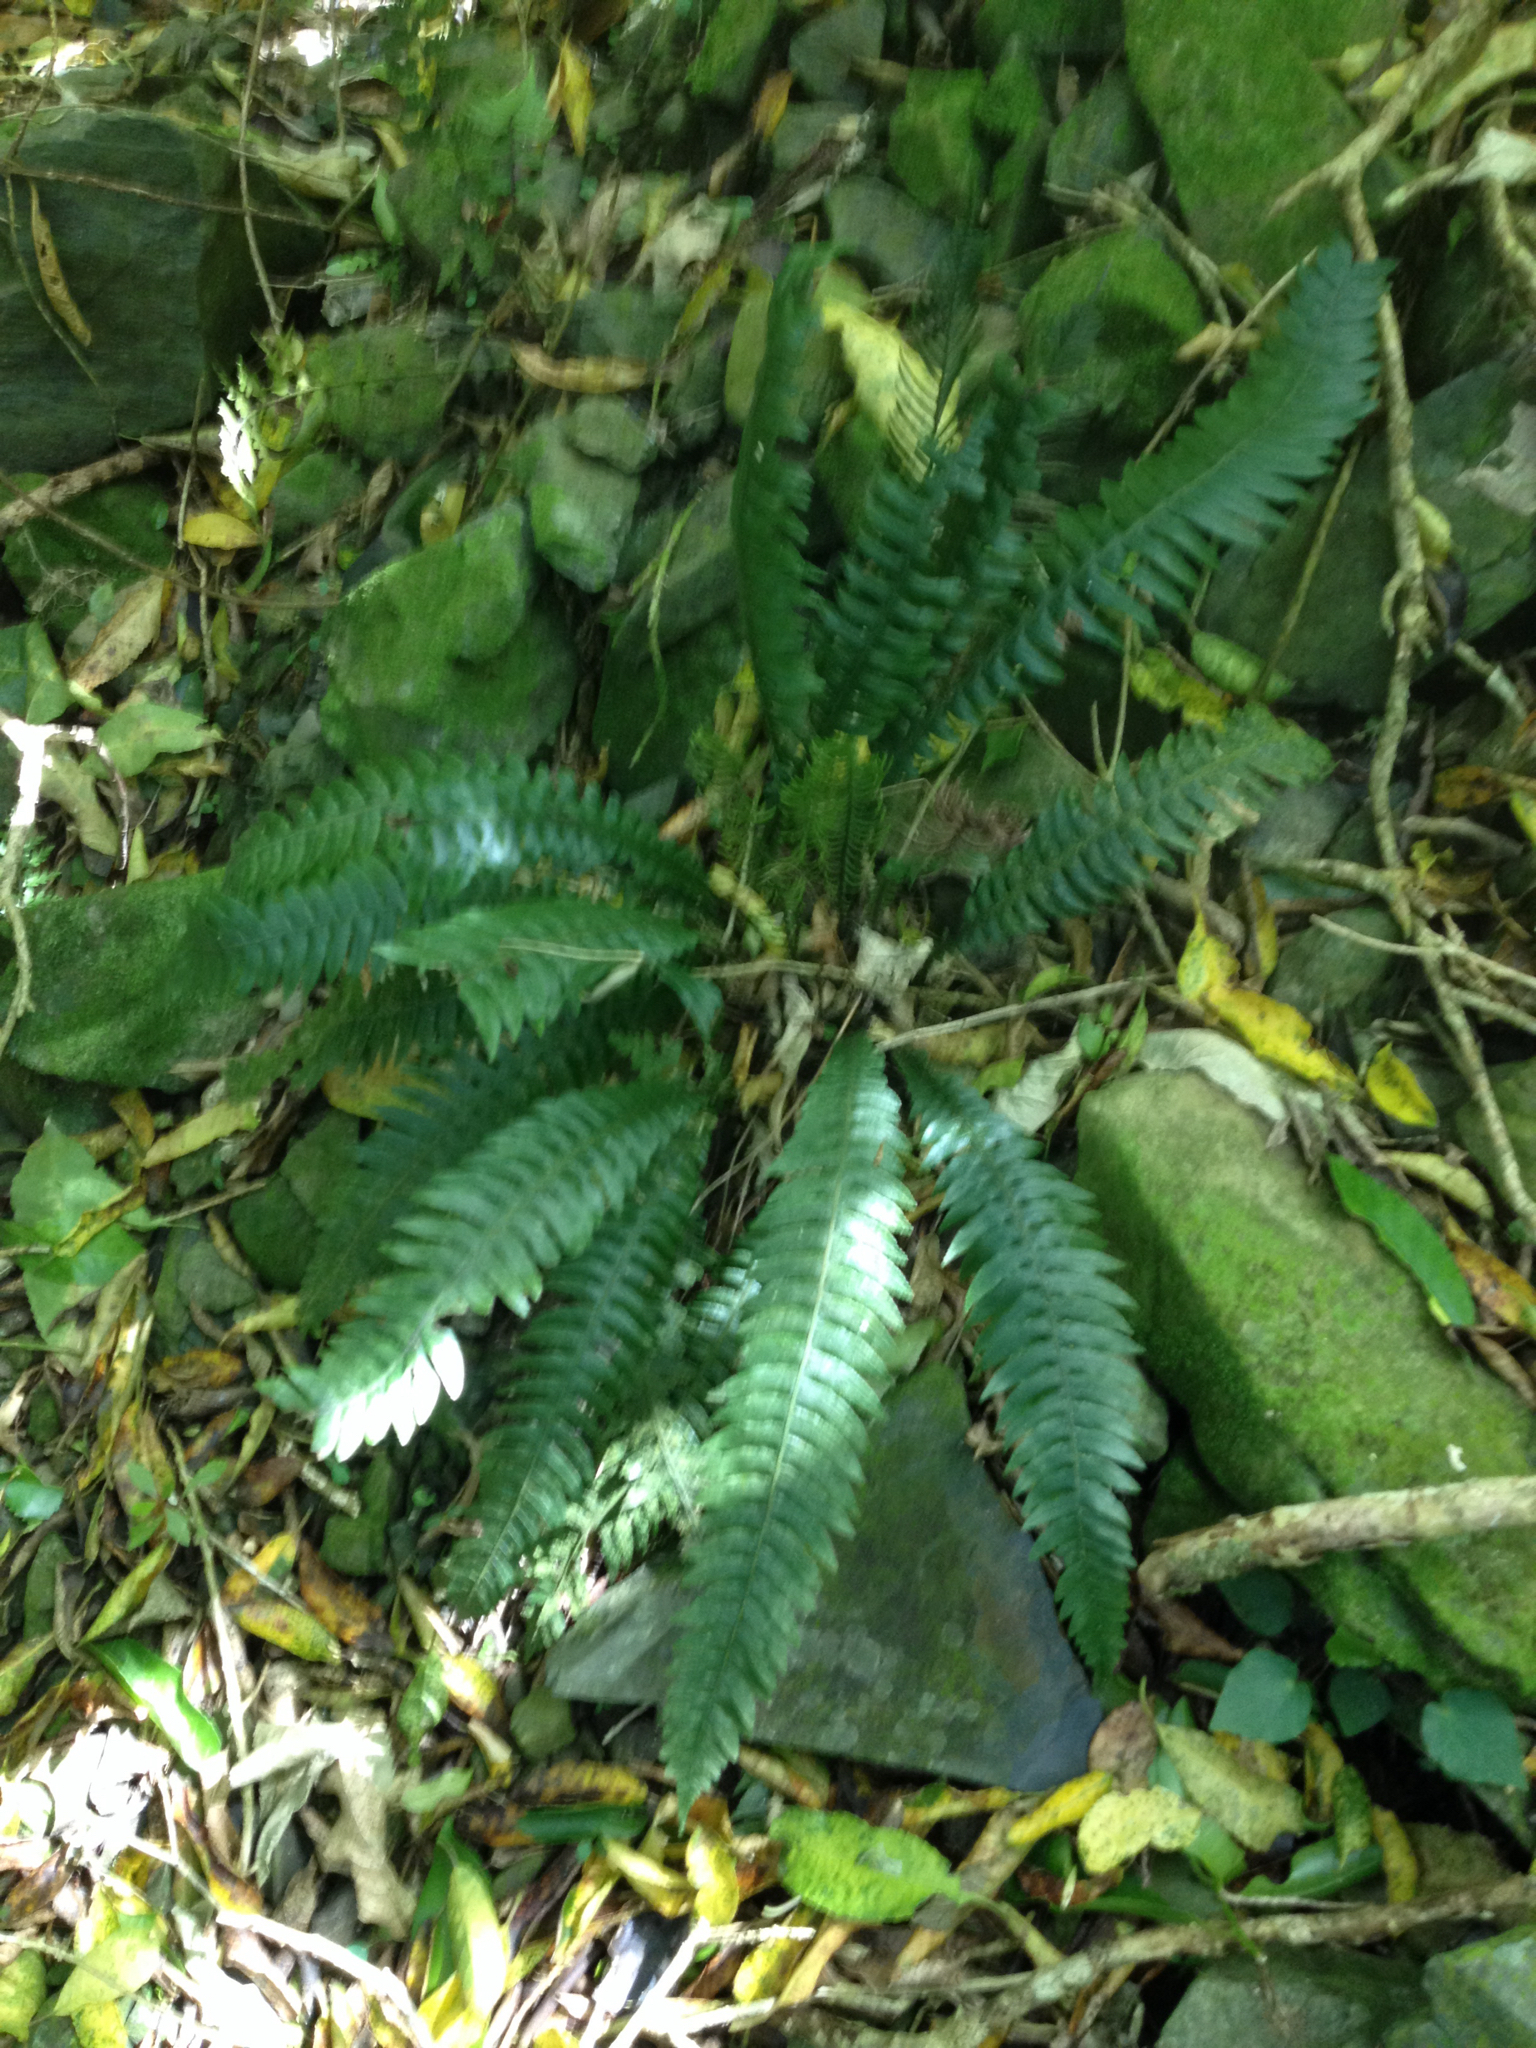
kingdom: Plantae
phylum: Tracheophyta
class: Polypodiopsida
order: Polypodiales
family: Blechnaceae
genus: Austroblechnum
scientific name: Austroblechnum lanceolatum
